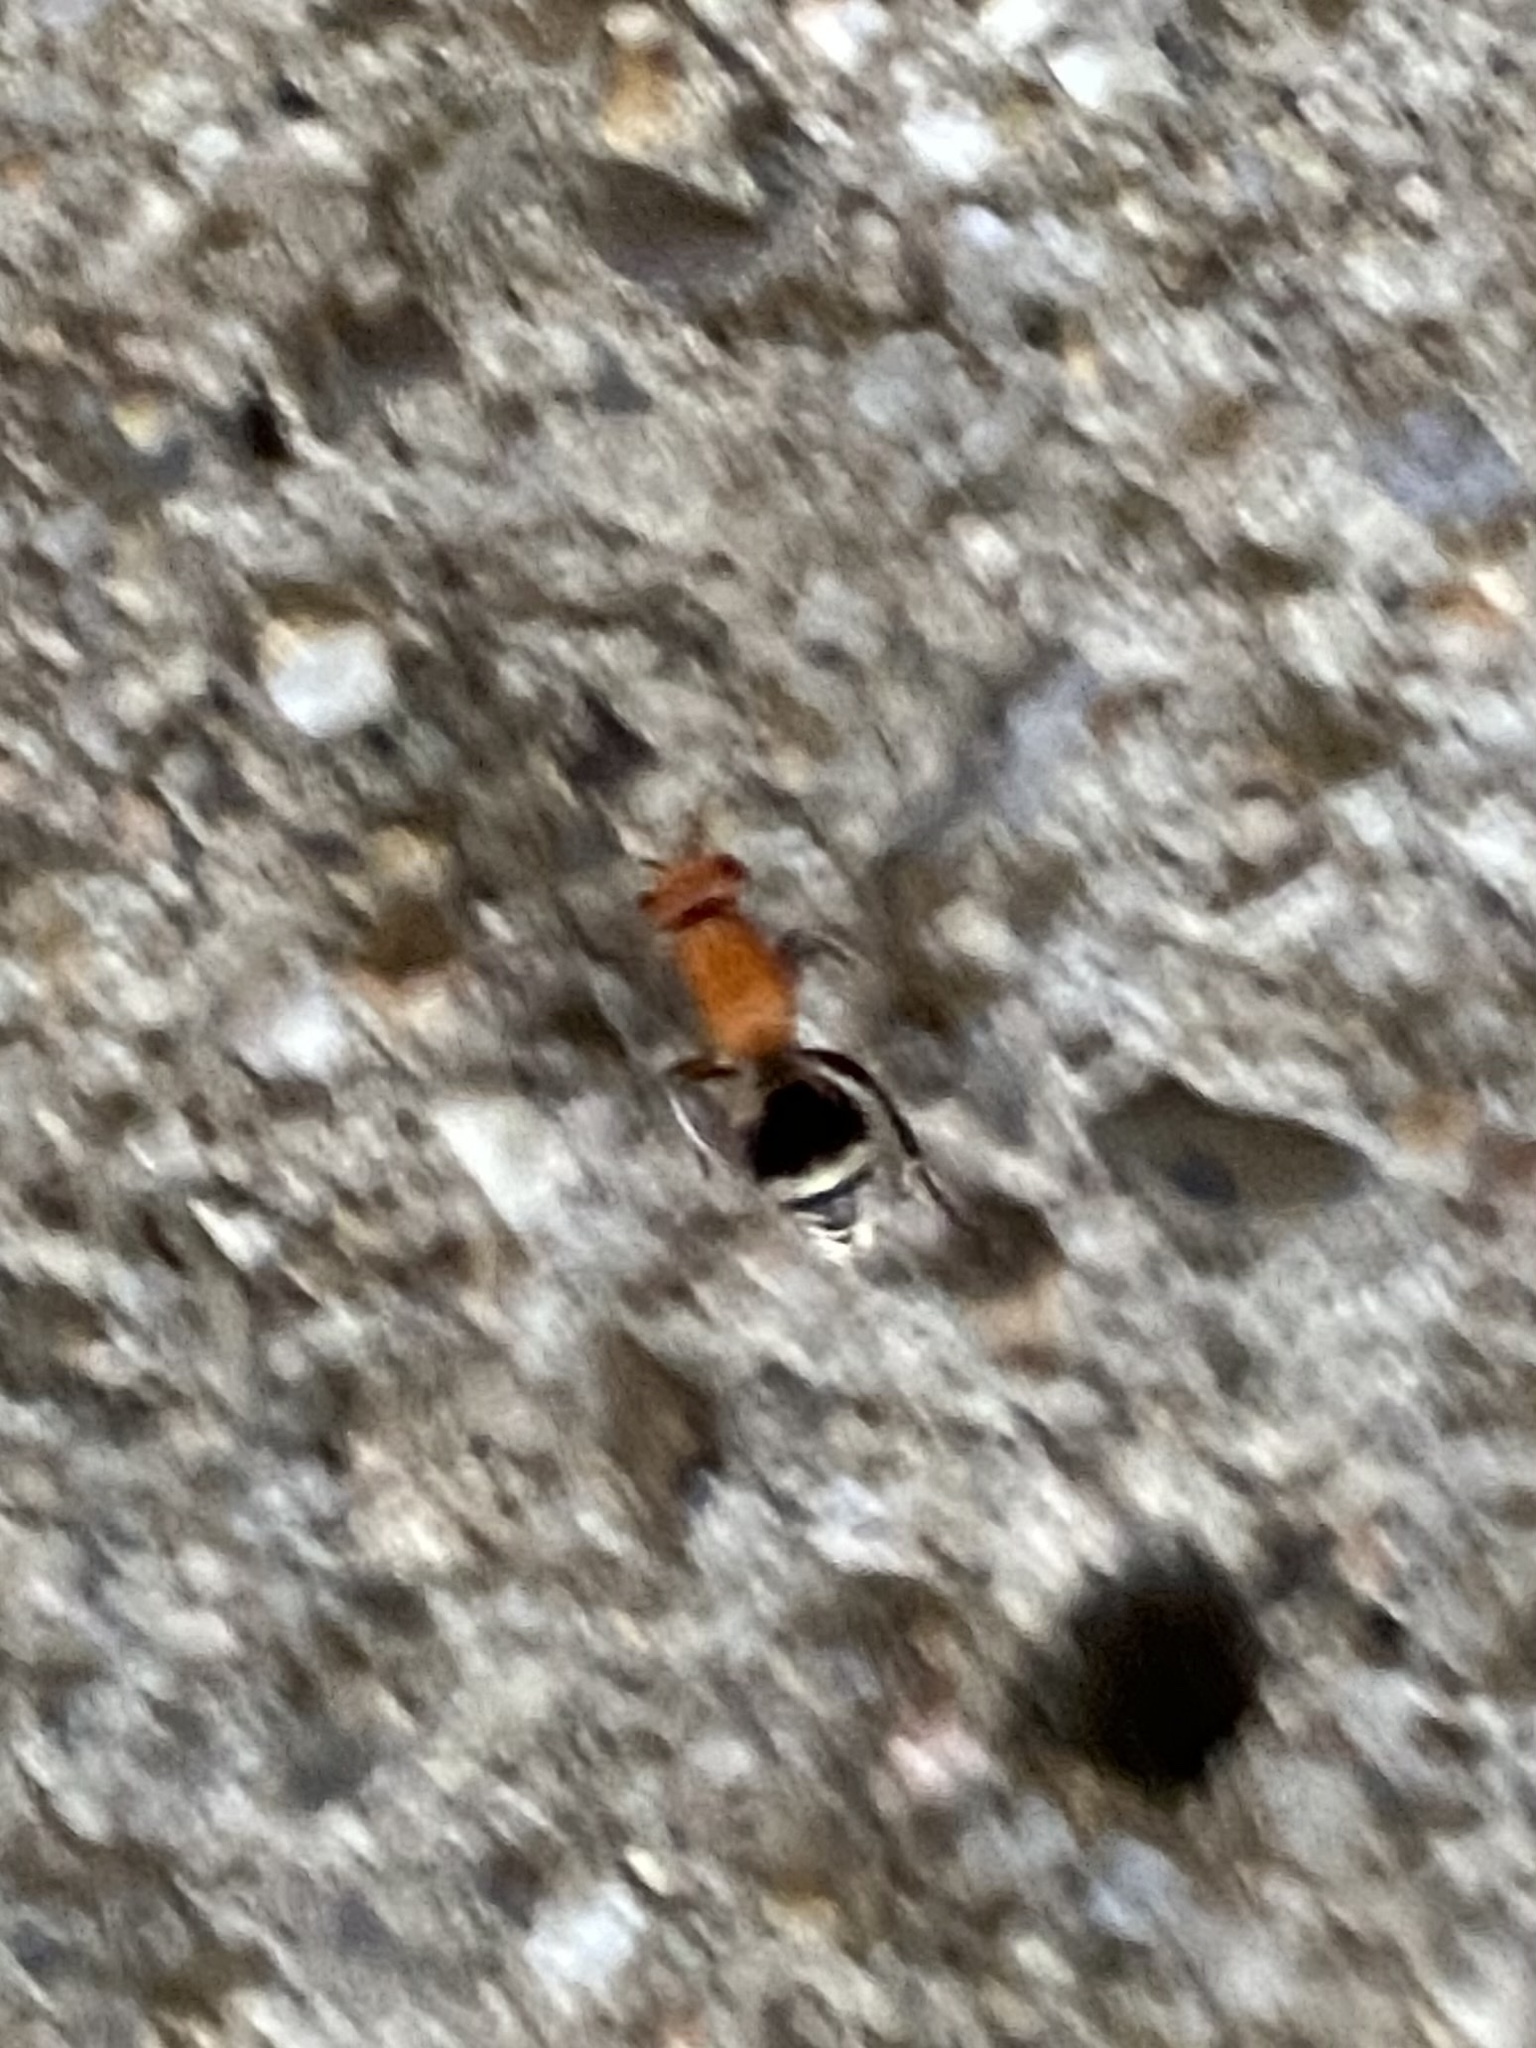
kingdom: Animalia
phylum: Arthropoda
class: Insecta
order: Hymenoptera
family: Mutillidae
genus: Timulla
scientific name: Timulla
